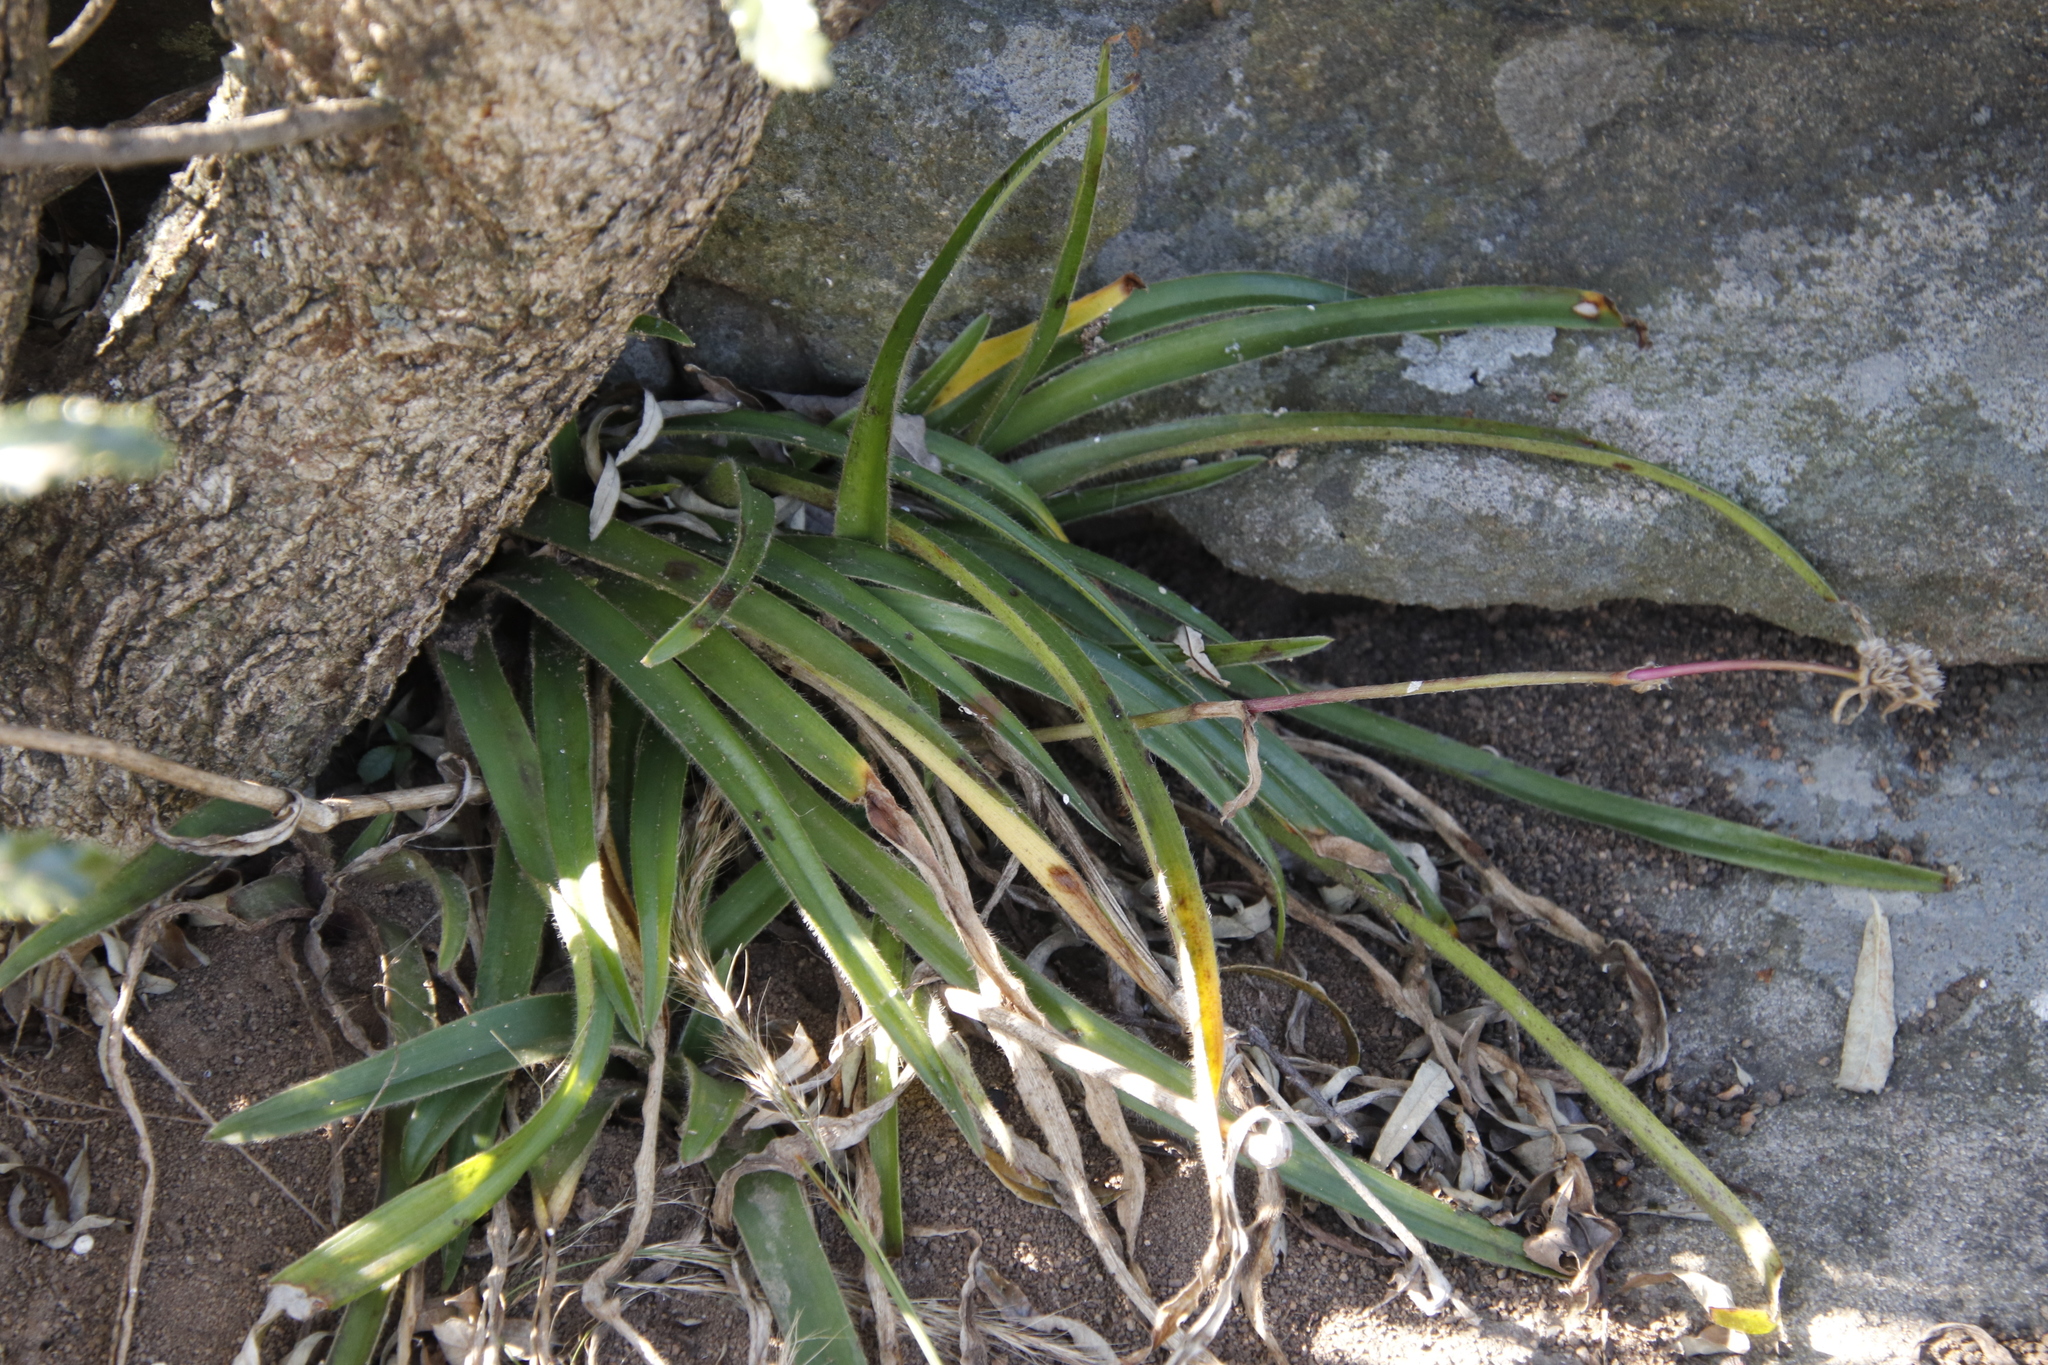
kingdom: Plantae
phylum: Tracheophyta
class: Liliopsida
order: Commelinales
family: Commelinaceae
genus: Cyanotis
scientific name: Cyanotis speciosa
